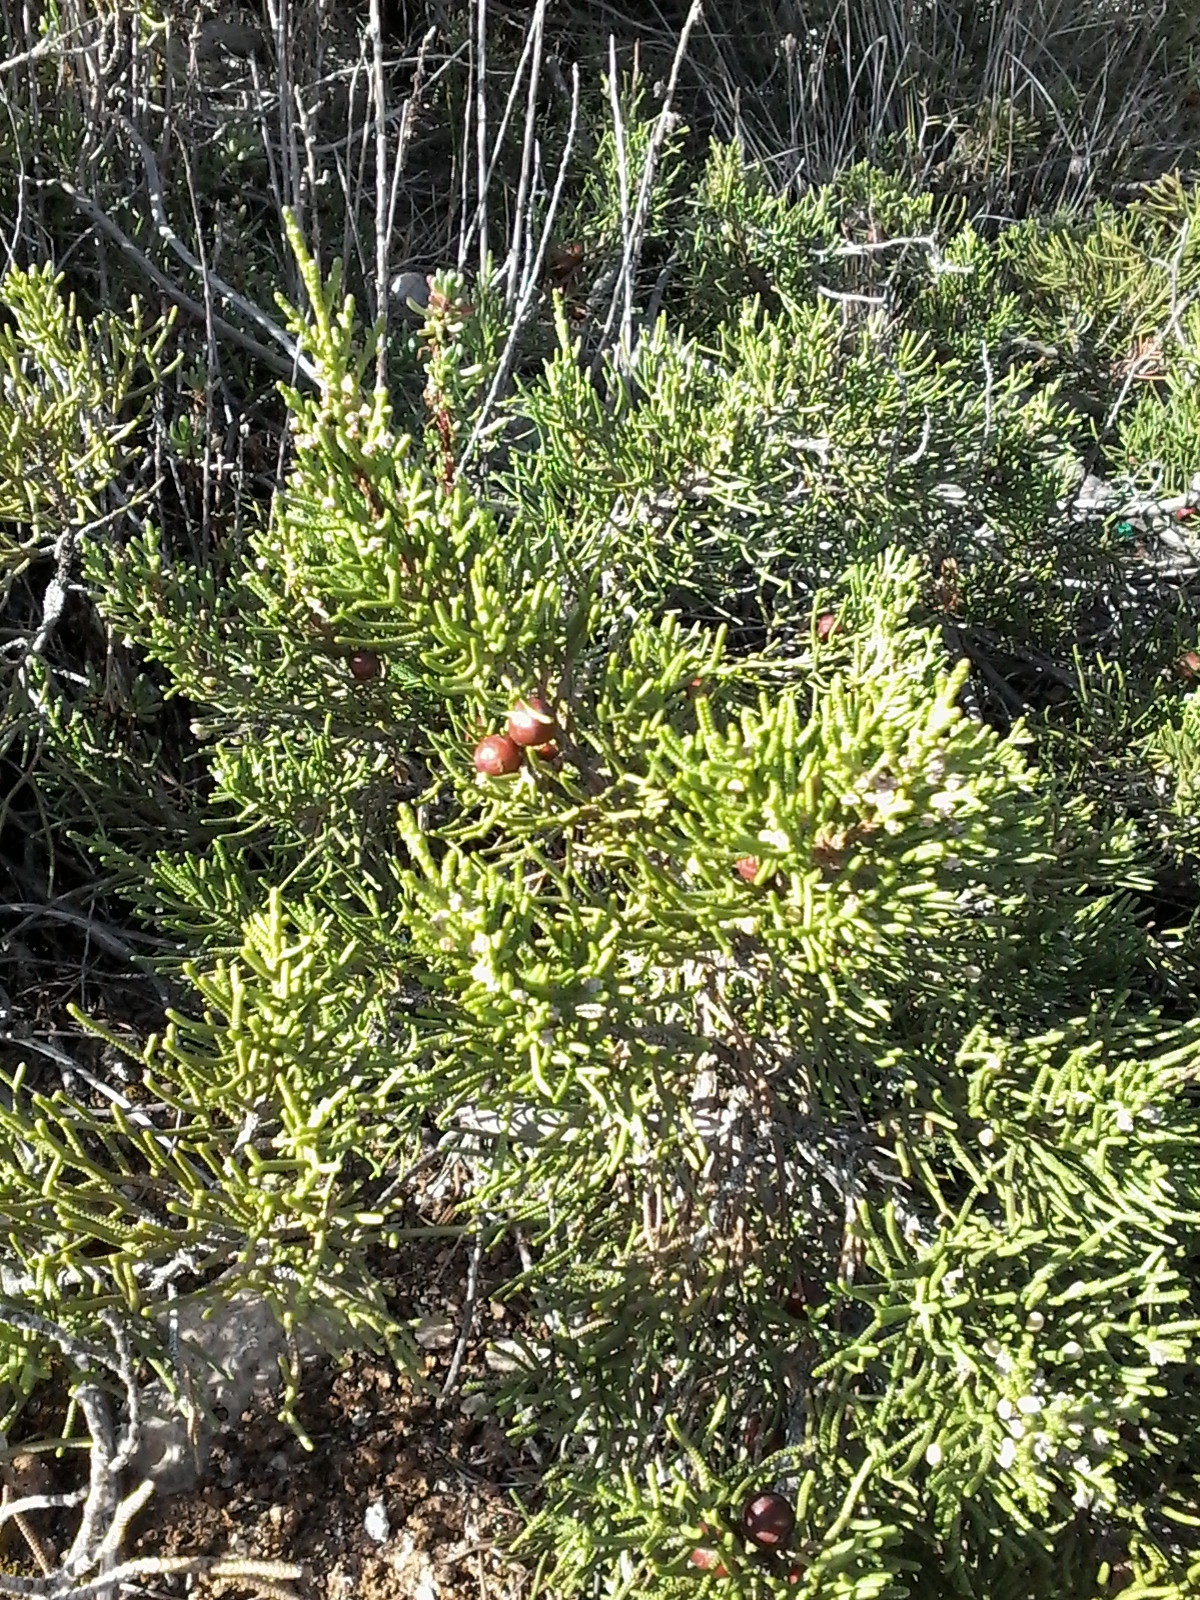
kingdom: Plantae
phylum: Tracheophyta
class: Pinopsida
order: Pinales
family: Cupressaceae
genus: Juniperus
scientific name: Juniperus phoenicea
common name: Phoenician juniper
